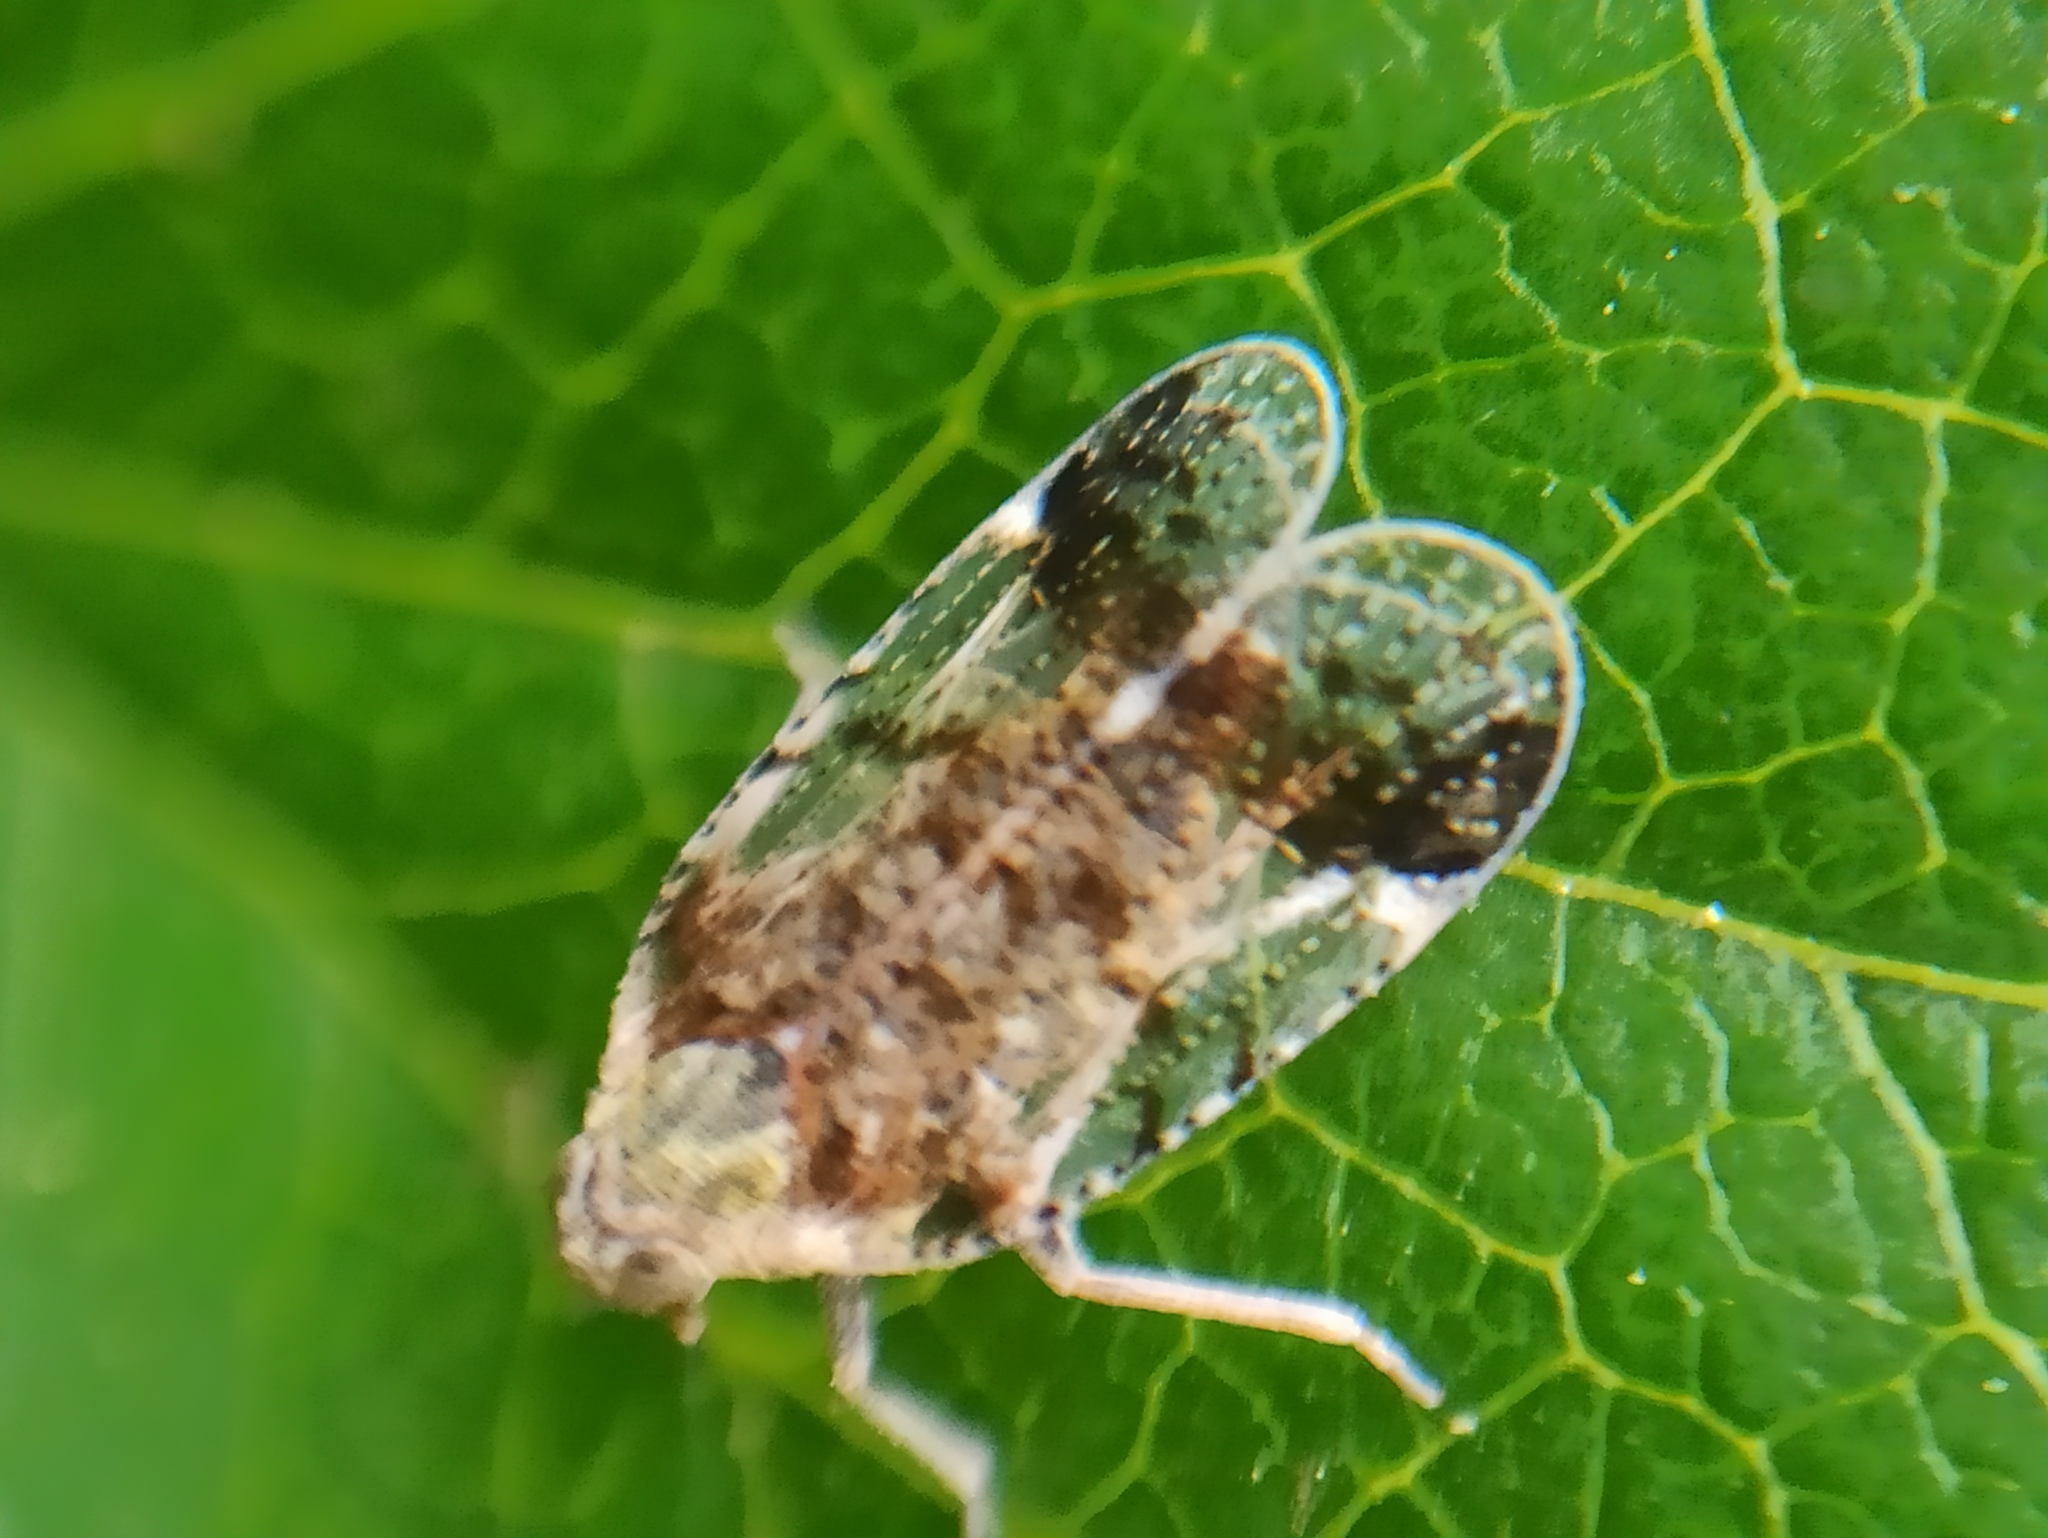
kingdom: Animalia
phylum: Arthropoda
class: Insecta
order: Hemiptera
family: Cixiidae
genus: Cixius
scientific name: Cixius cunicularius
